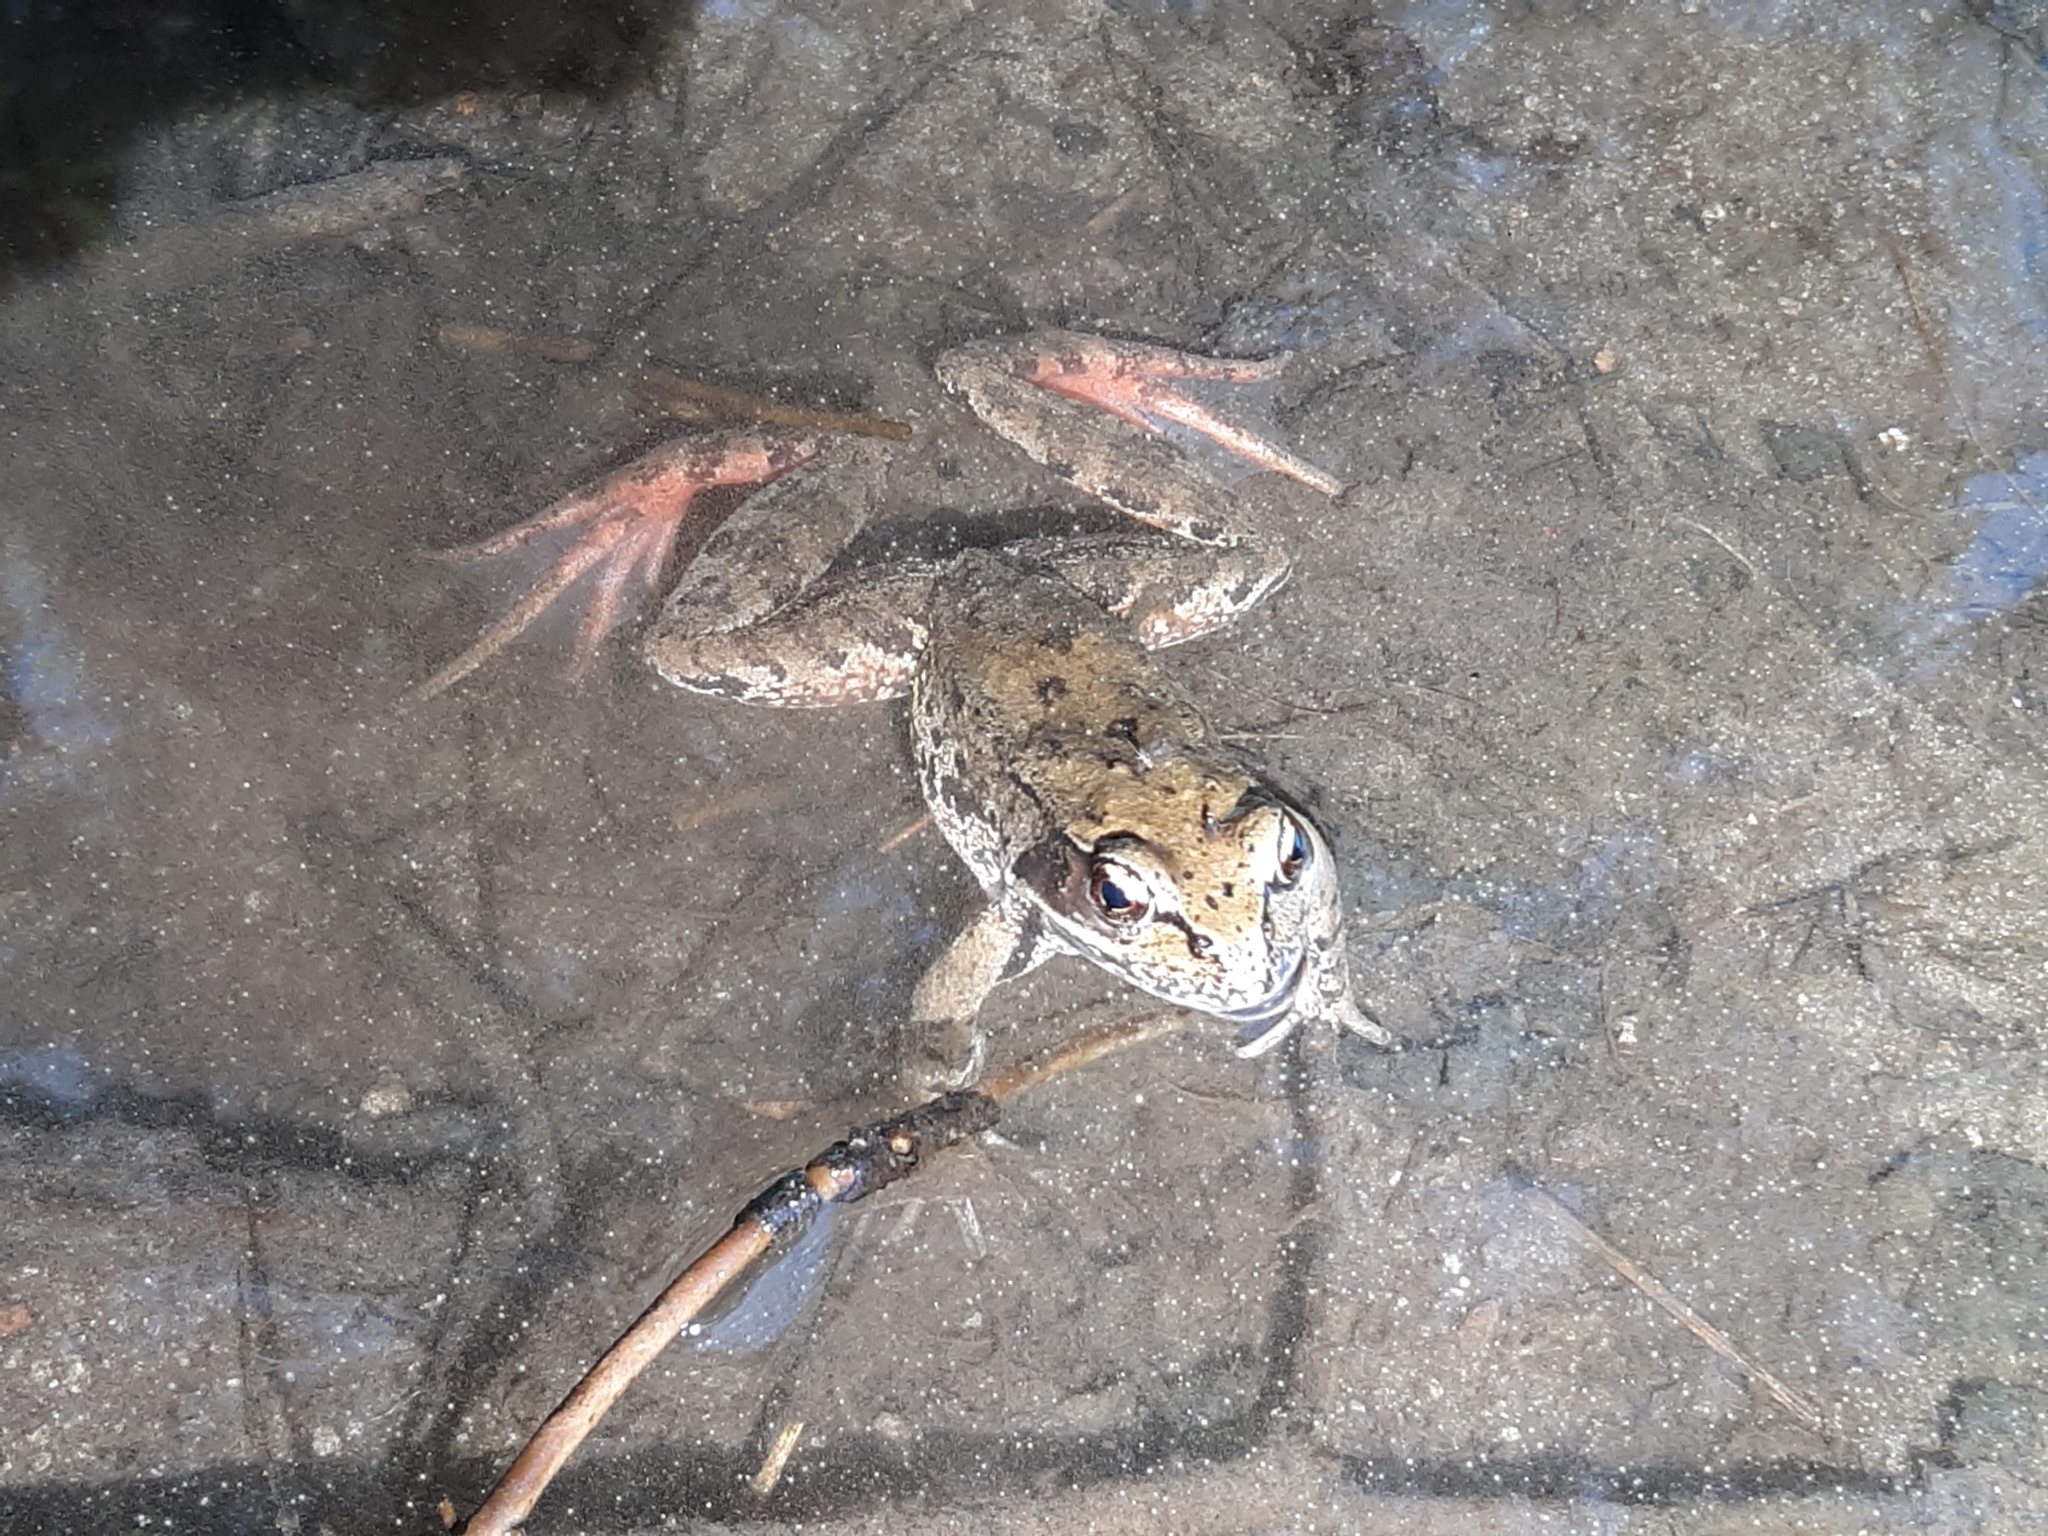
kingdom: Animalia
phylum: Chordata
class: Amphibia
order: Anura
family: Ranidae
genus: Rana
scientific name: Rana aurora
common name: Red-legged frog
